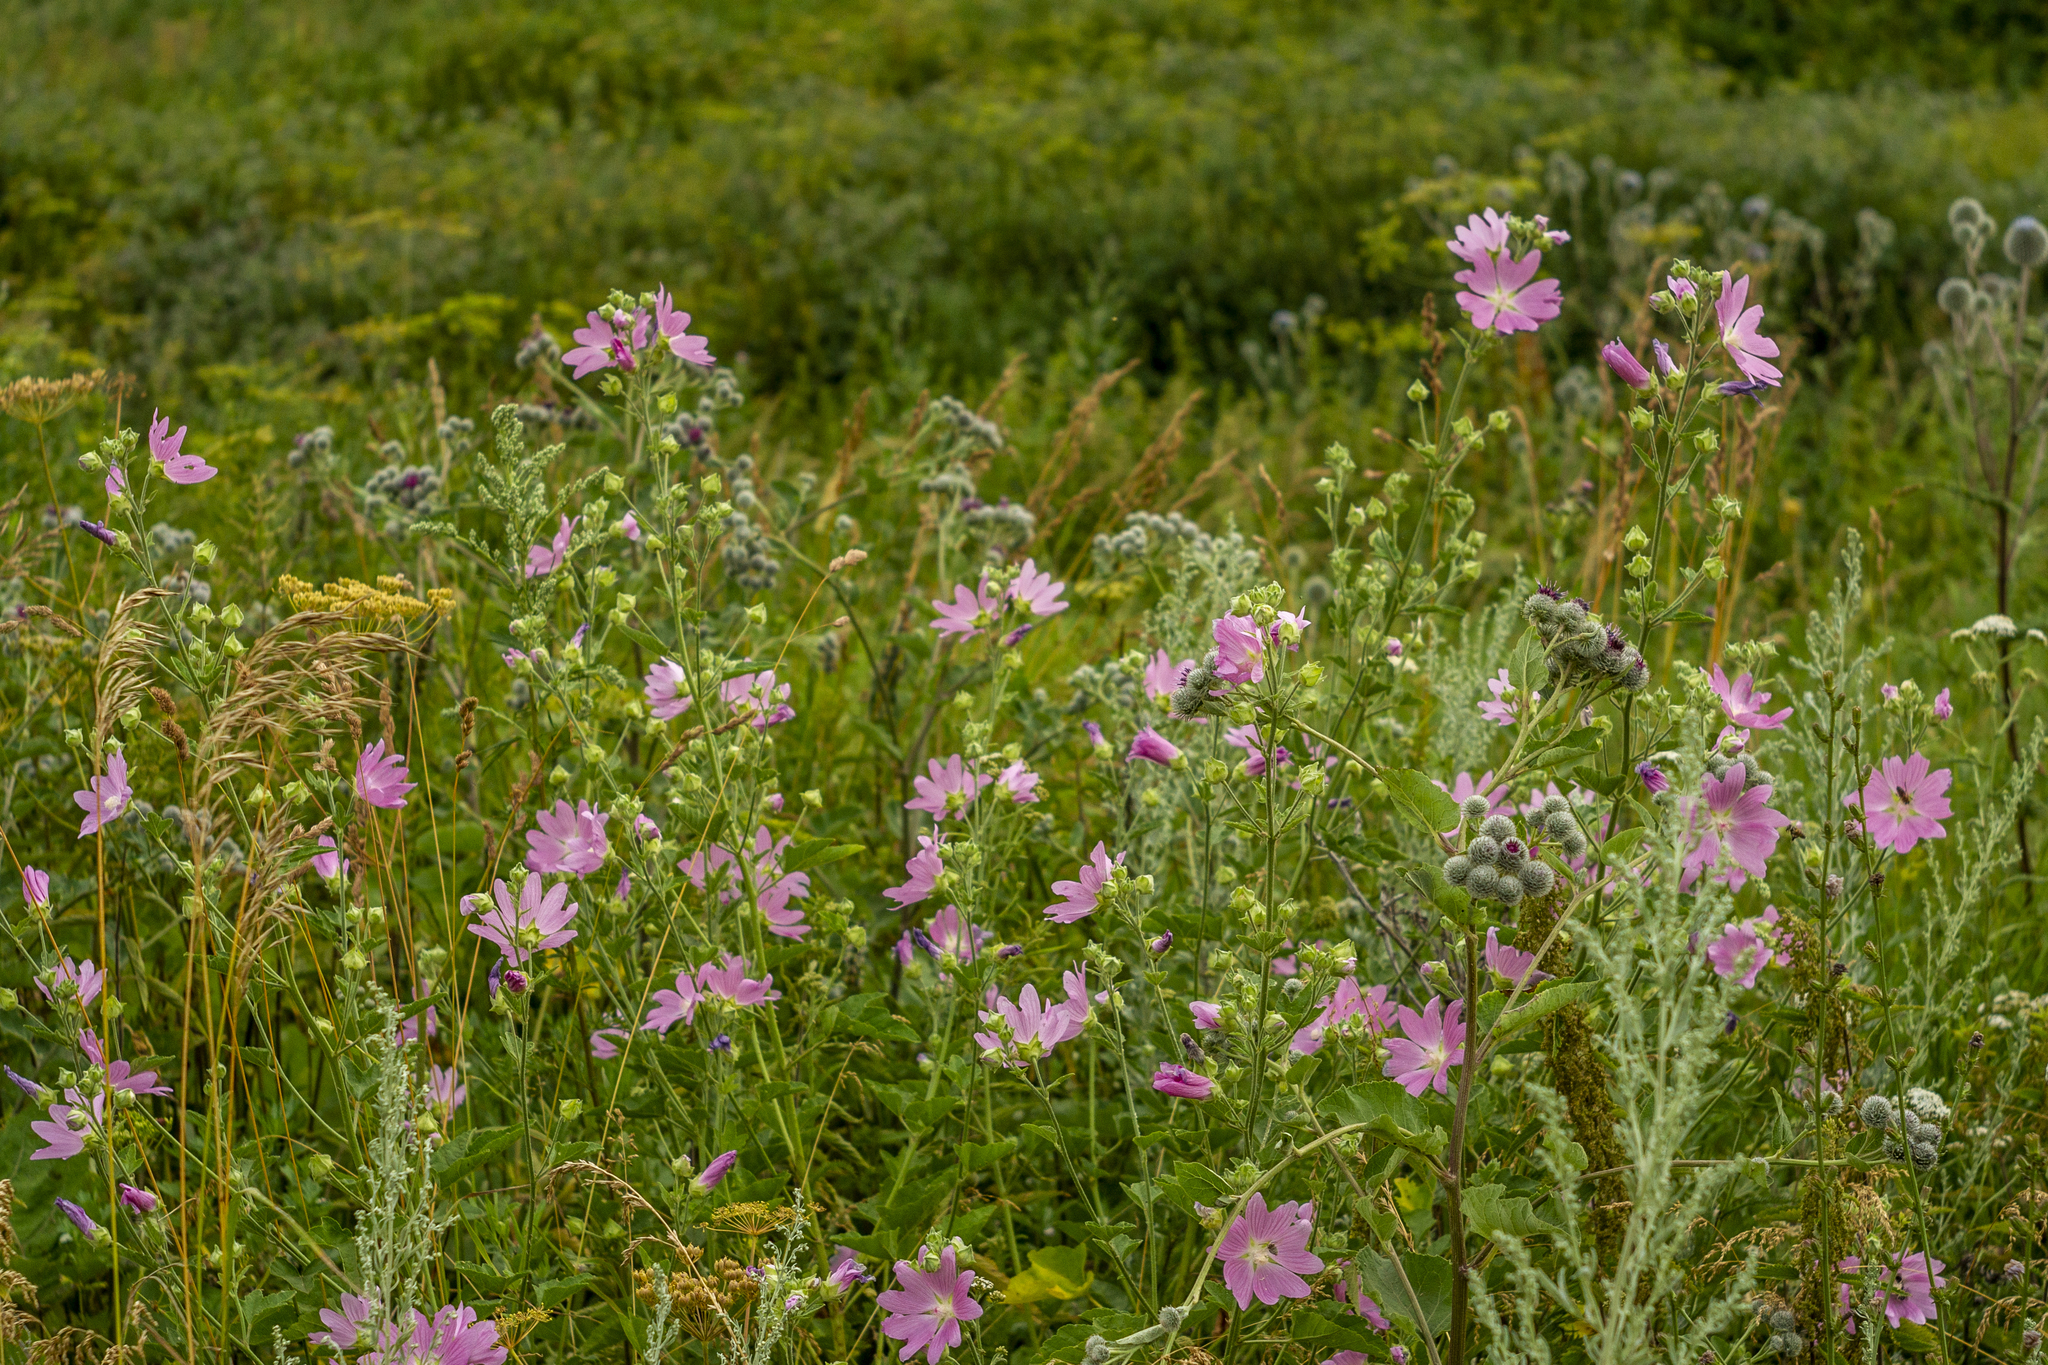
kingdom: Plantae
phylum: Tracheophyta
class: Magnoliopsida
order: Malvales
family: Malvaceae
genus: Malva
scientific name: Malva thuringiaca
